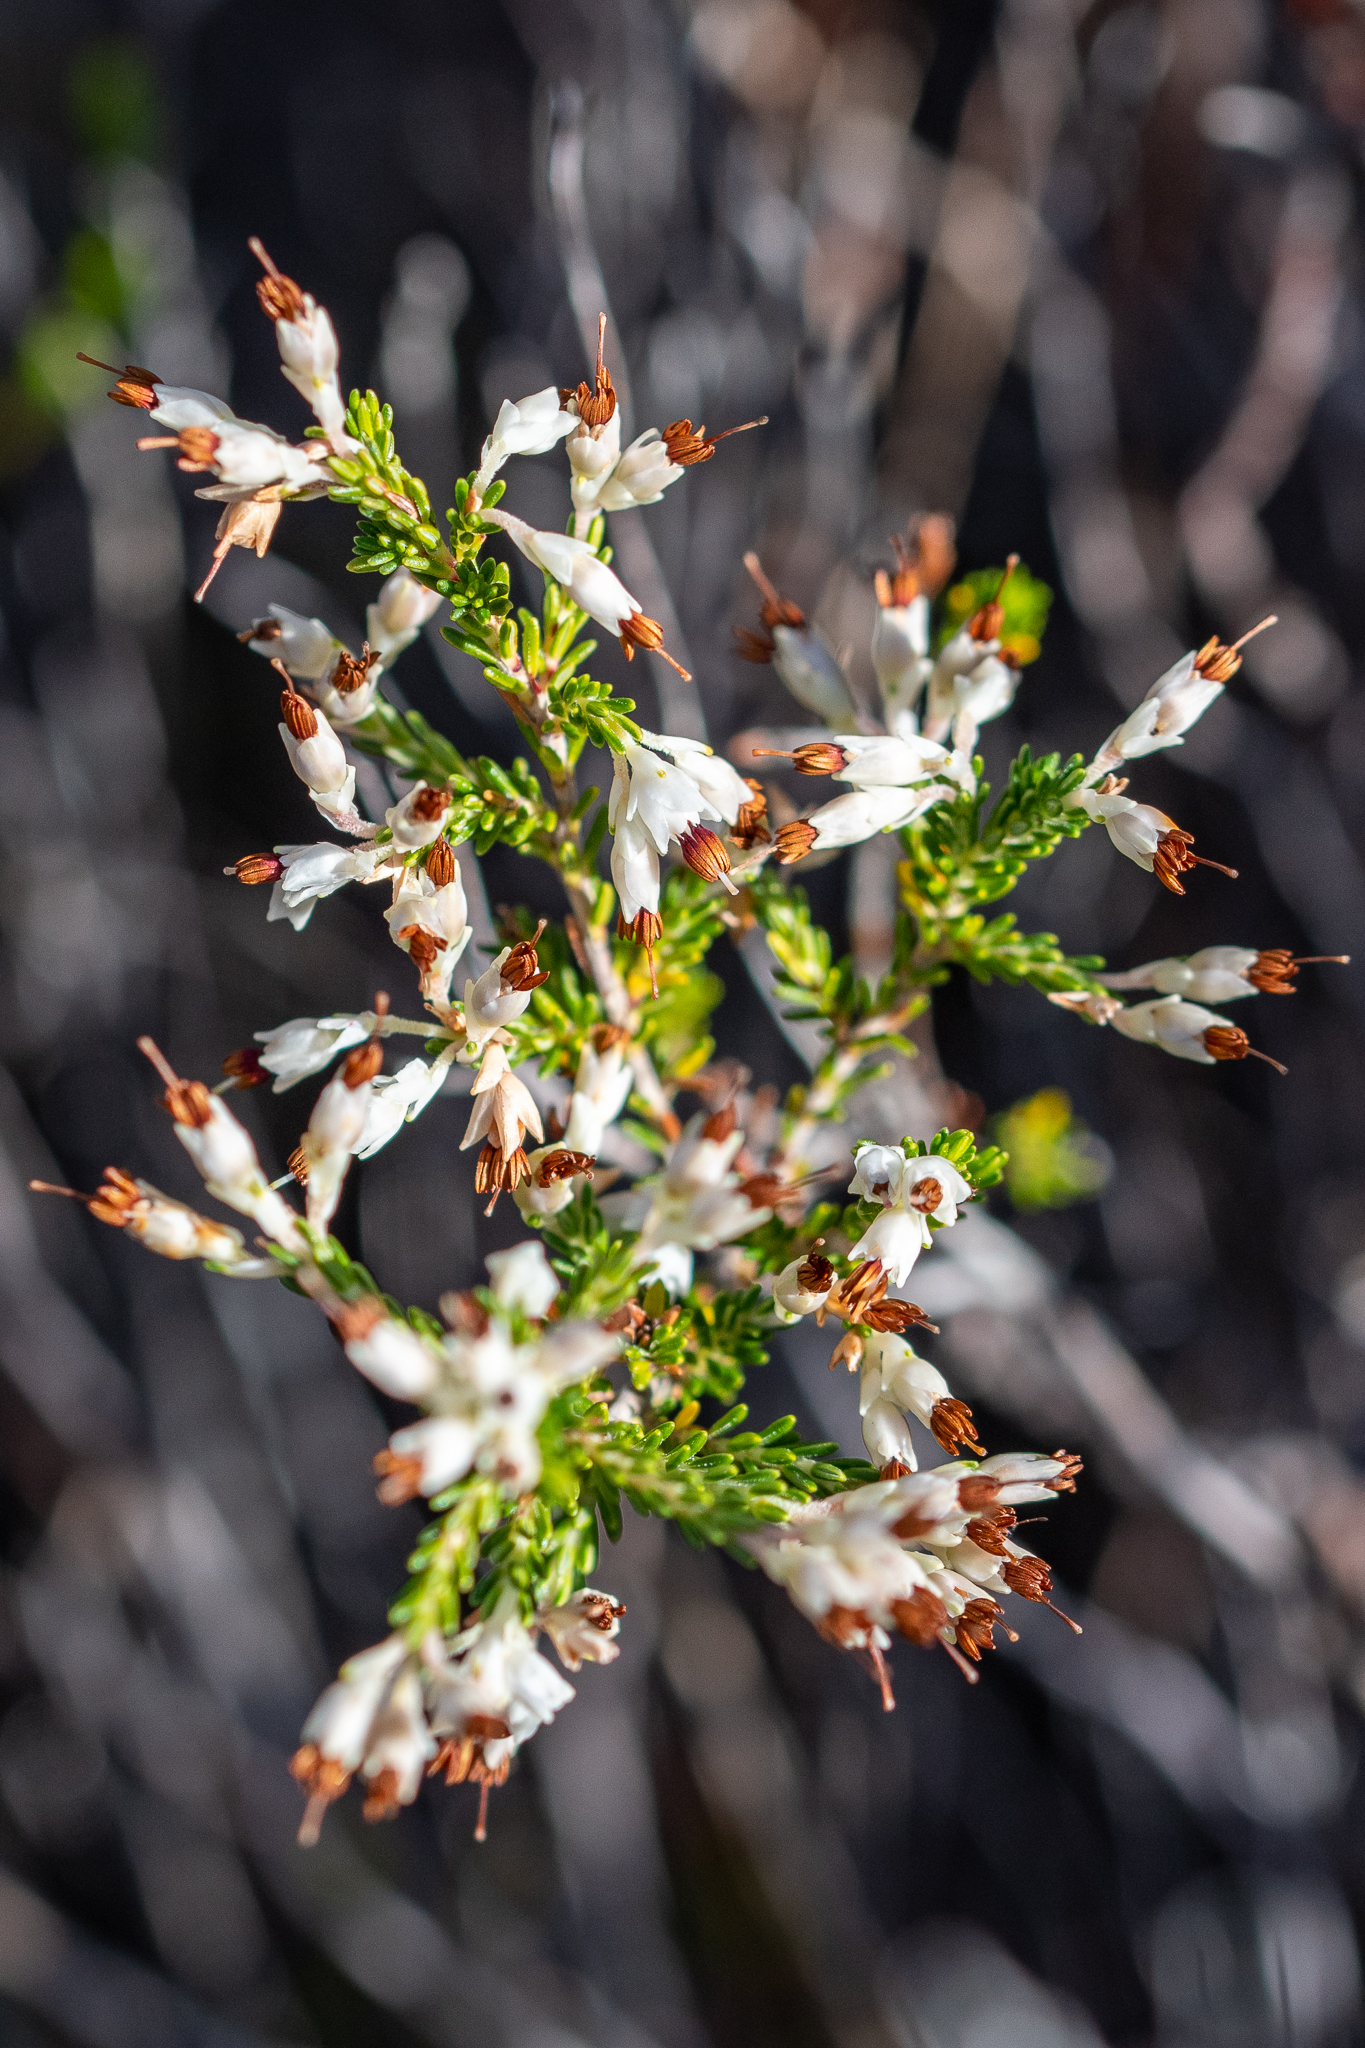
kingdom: Plantae
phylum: Tracheophyta
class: Magnoliopsida
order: Ericales
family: Ericaceae
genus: Erica
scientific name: Erica imbricata
